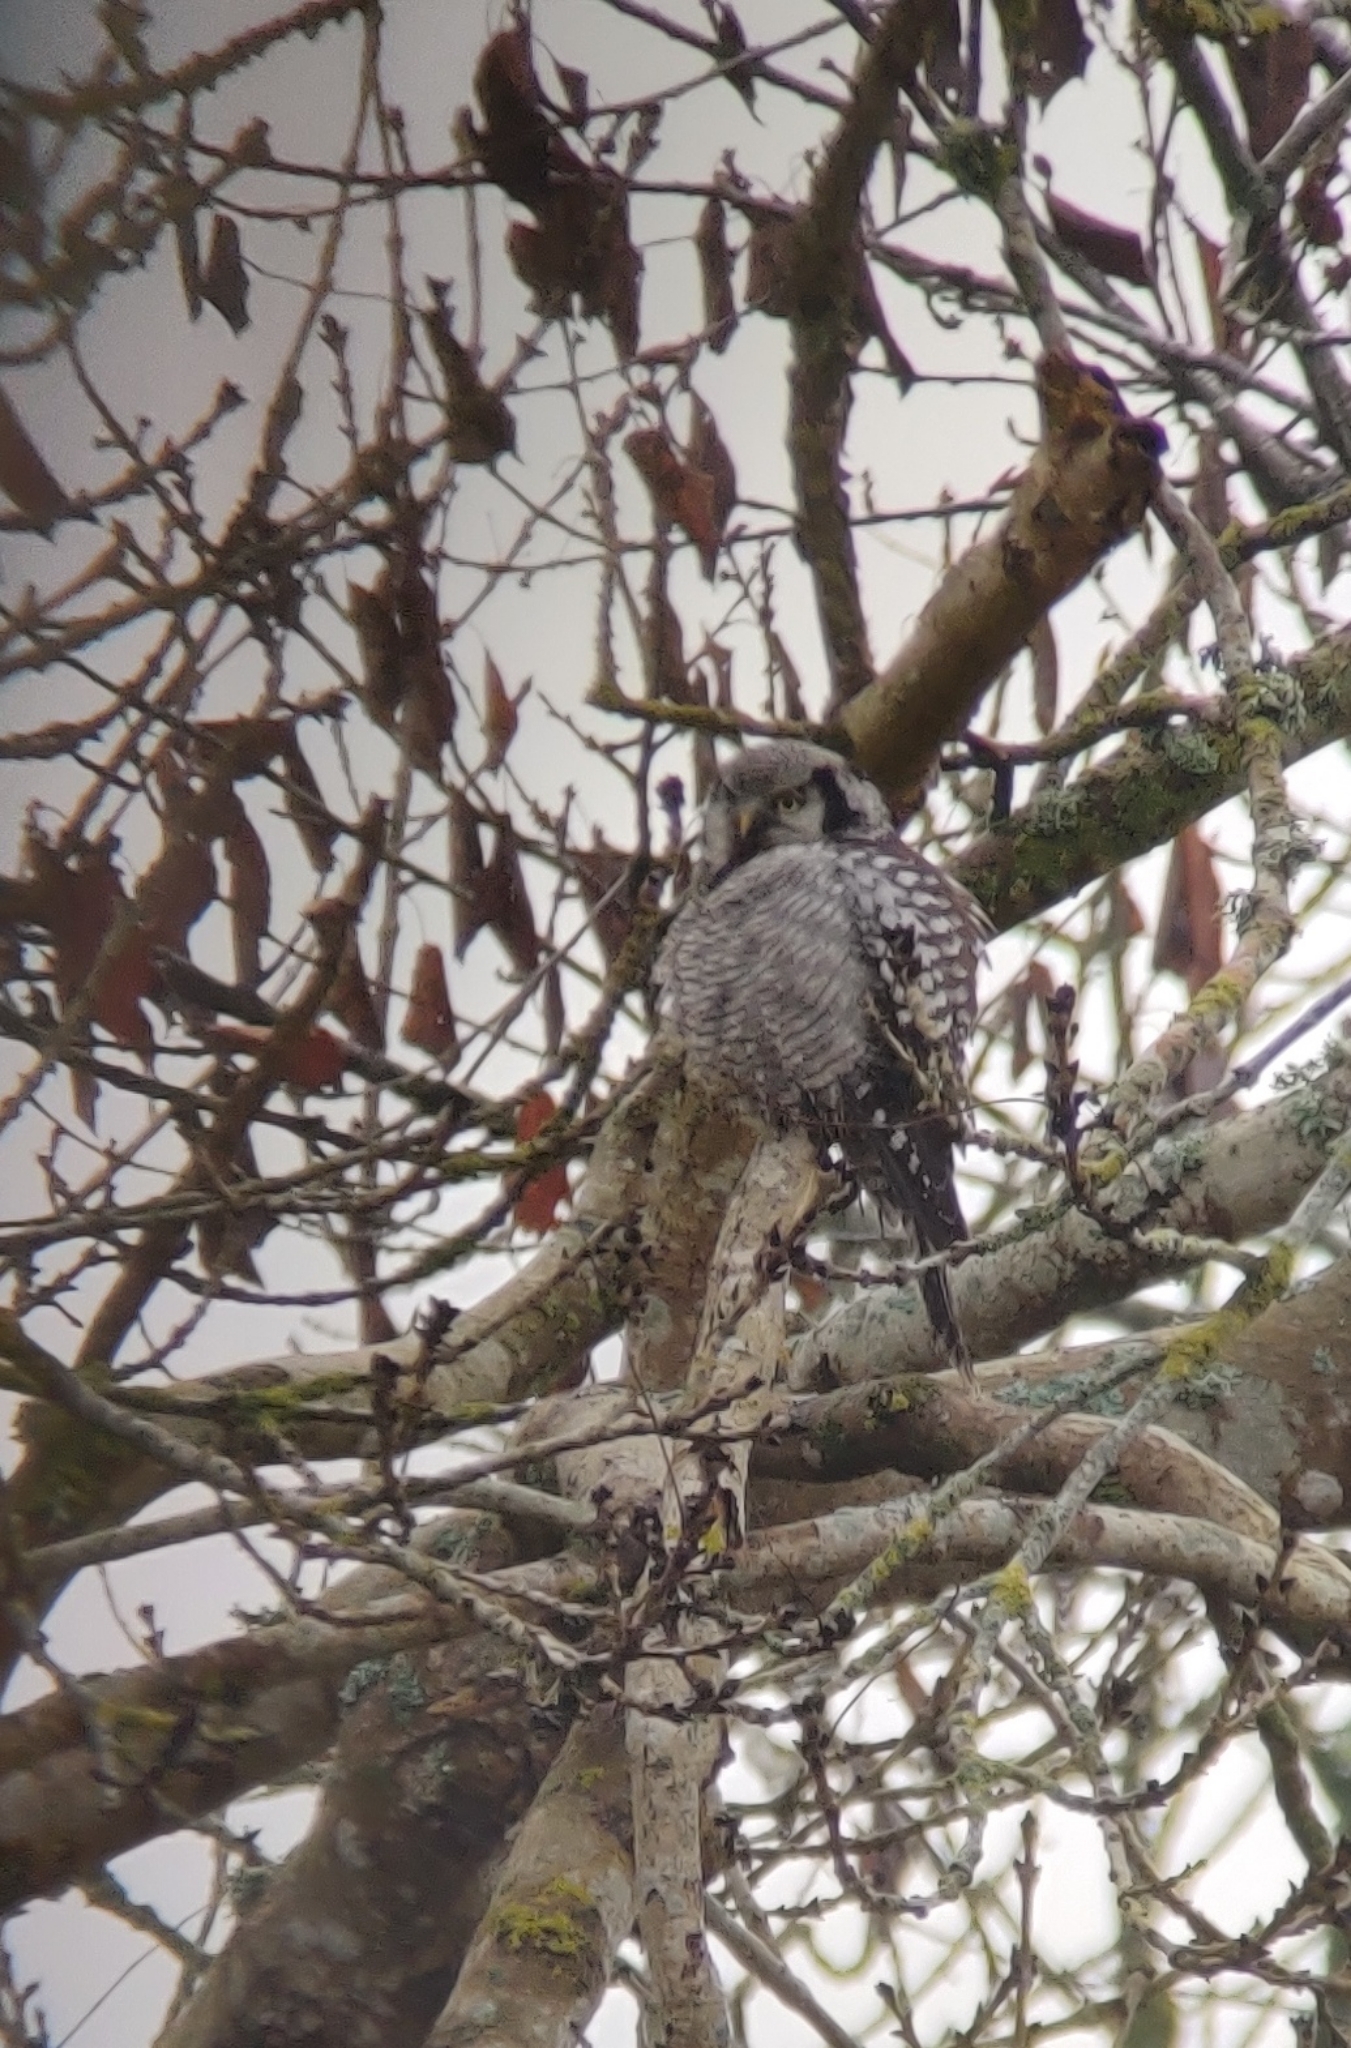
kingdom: Animalia
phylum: Chordata
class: Aves
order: Strigiformes
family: Strigidae
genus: Surnia
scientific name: Surnia ulula
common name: Northern hawk-owl
